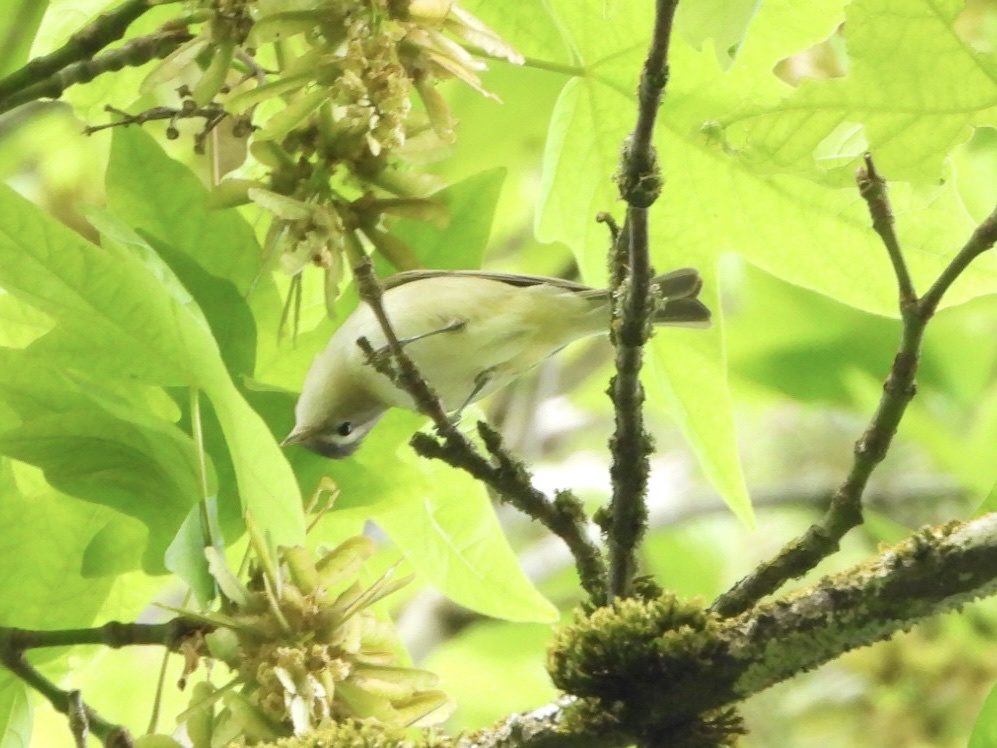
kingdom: Animalia
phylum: Chordata
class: Aves
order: Passeriformes
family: Vireonidae
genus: Vireo
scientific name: Vireo gilvus
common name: Warbling vireo
